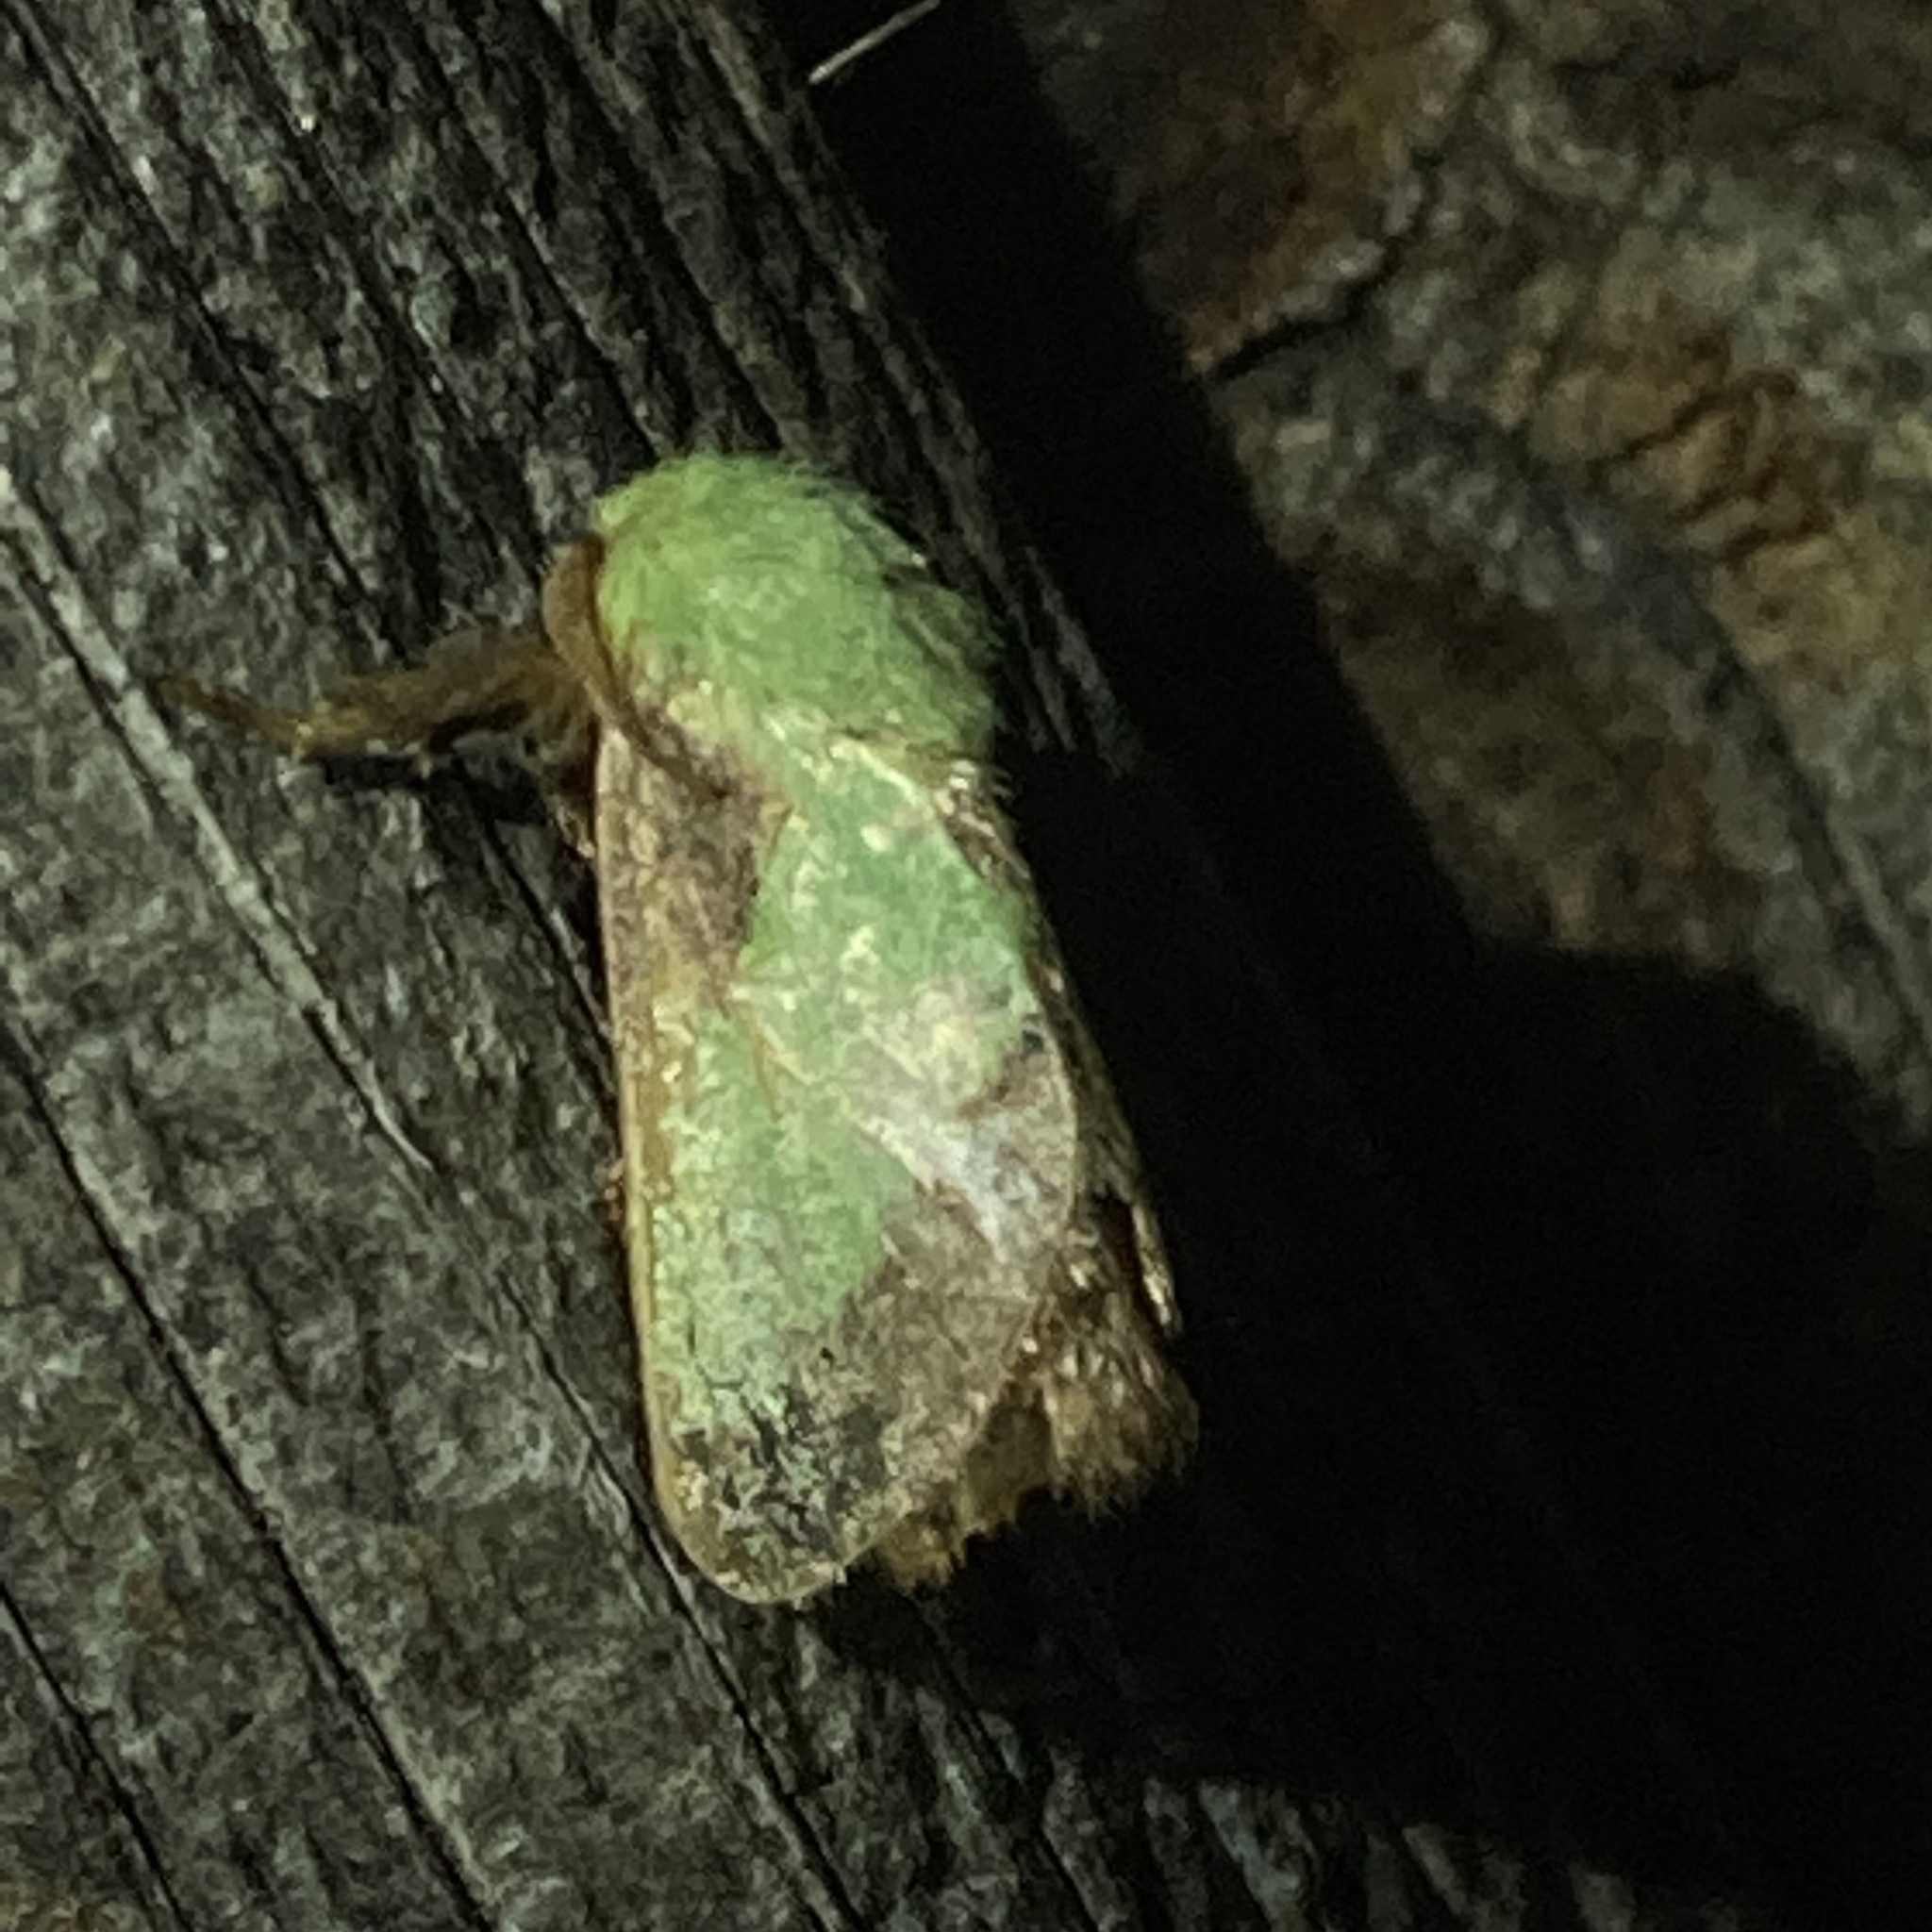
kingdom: Animalia
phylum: Arthropoda
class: Insecta
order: Lepidoptera
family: Limacodidae
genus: Parasa
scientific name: Parasa chloris
